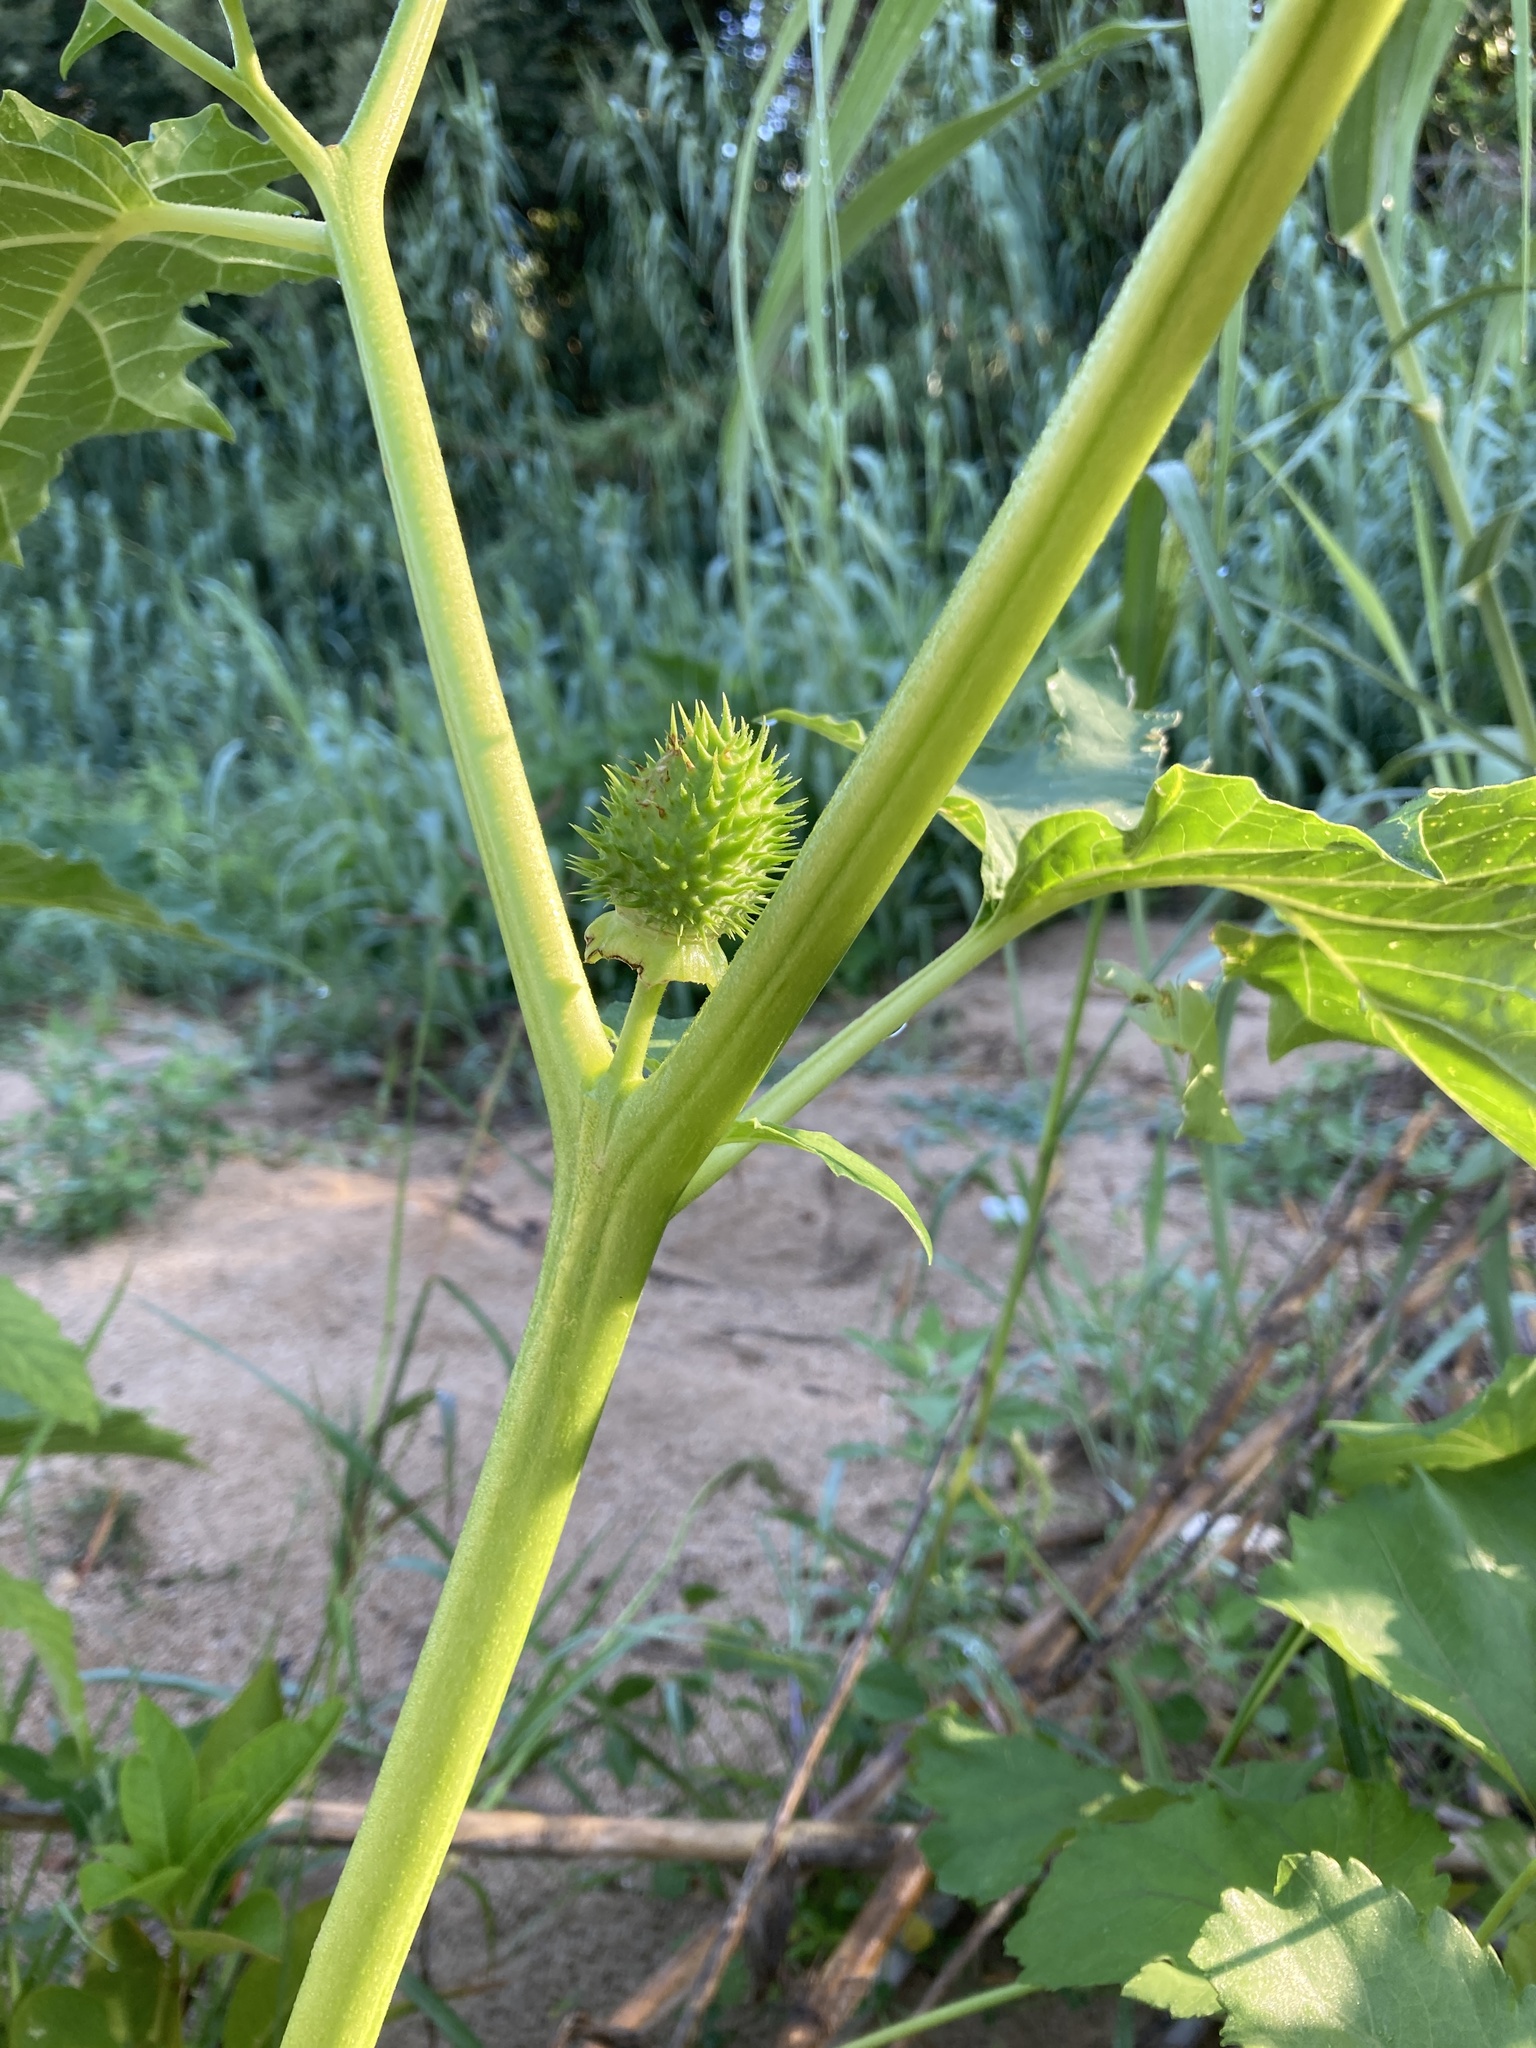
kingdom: Plantae
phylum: Tracheophyta
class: Magnoliopsida
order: Solanales
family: Solanaceae
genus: Datura
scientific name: Datura stramonium
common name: Thorn-apple
